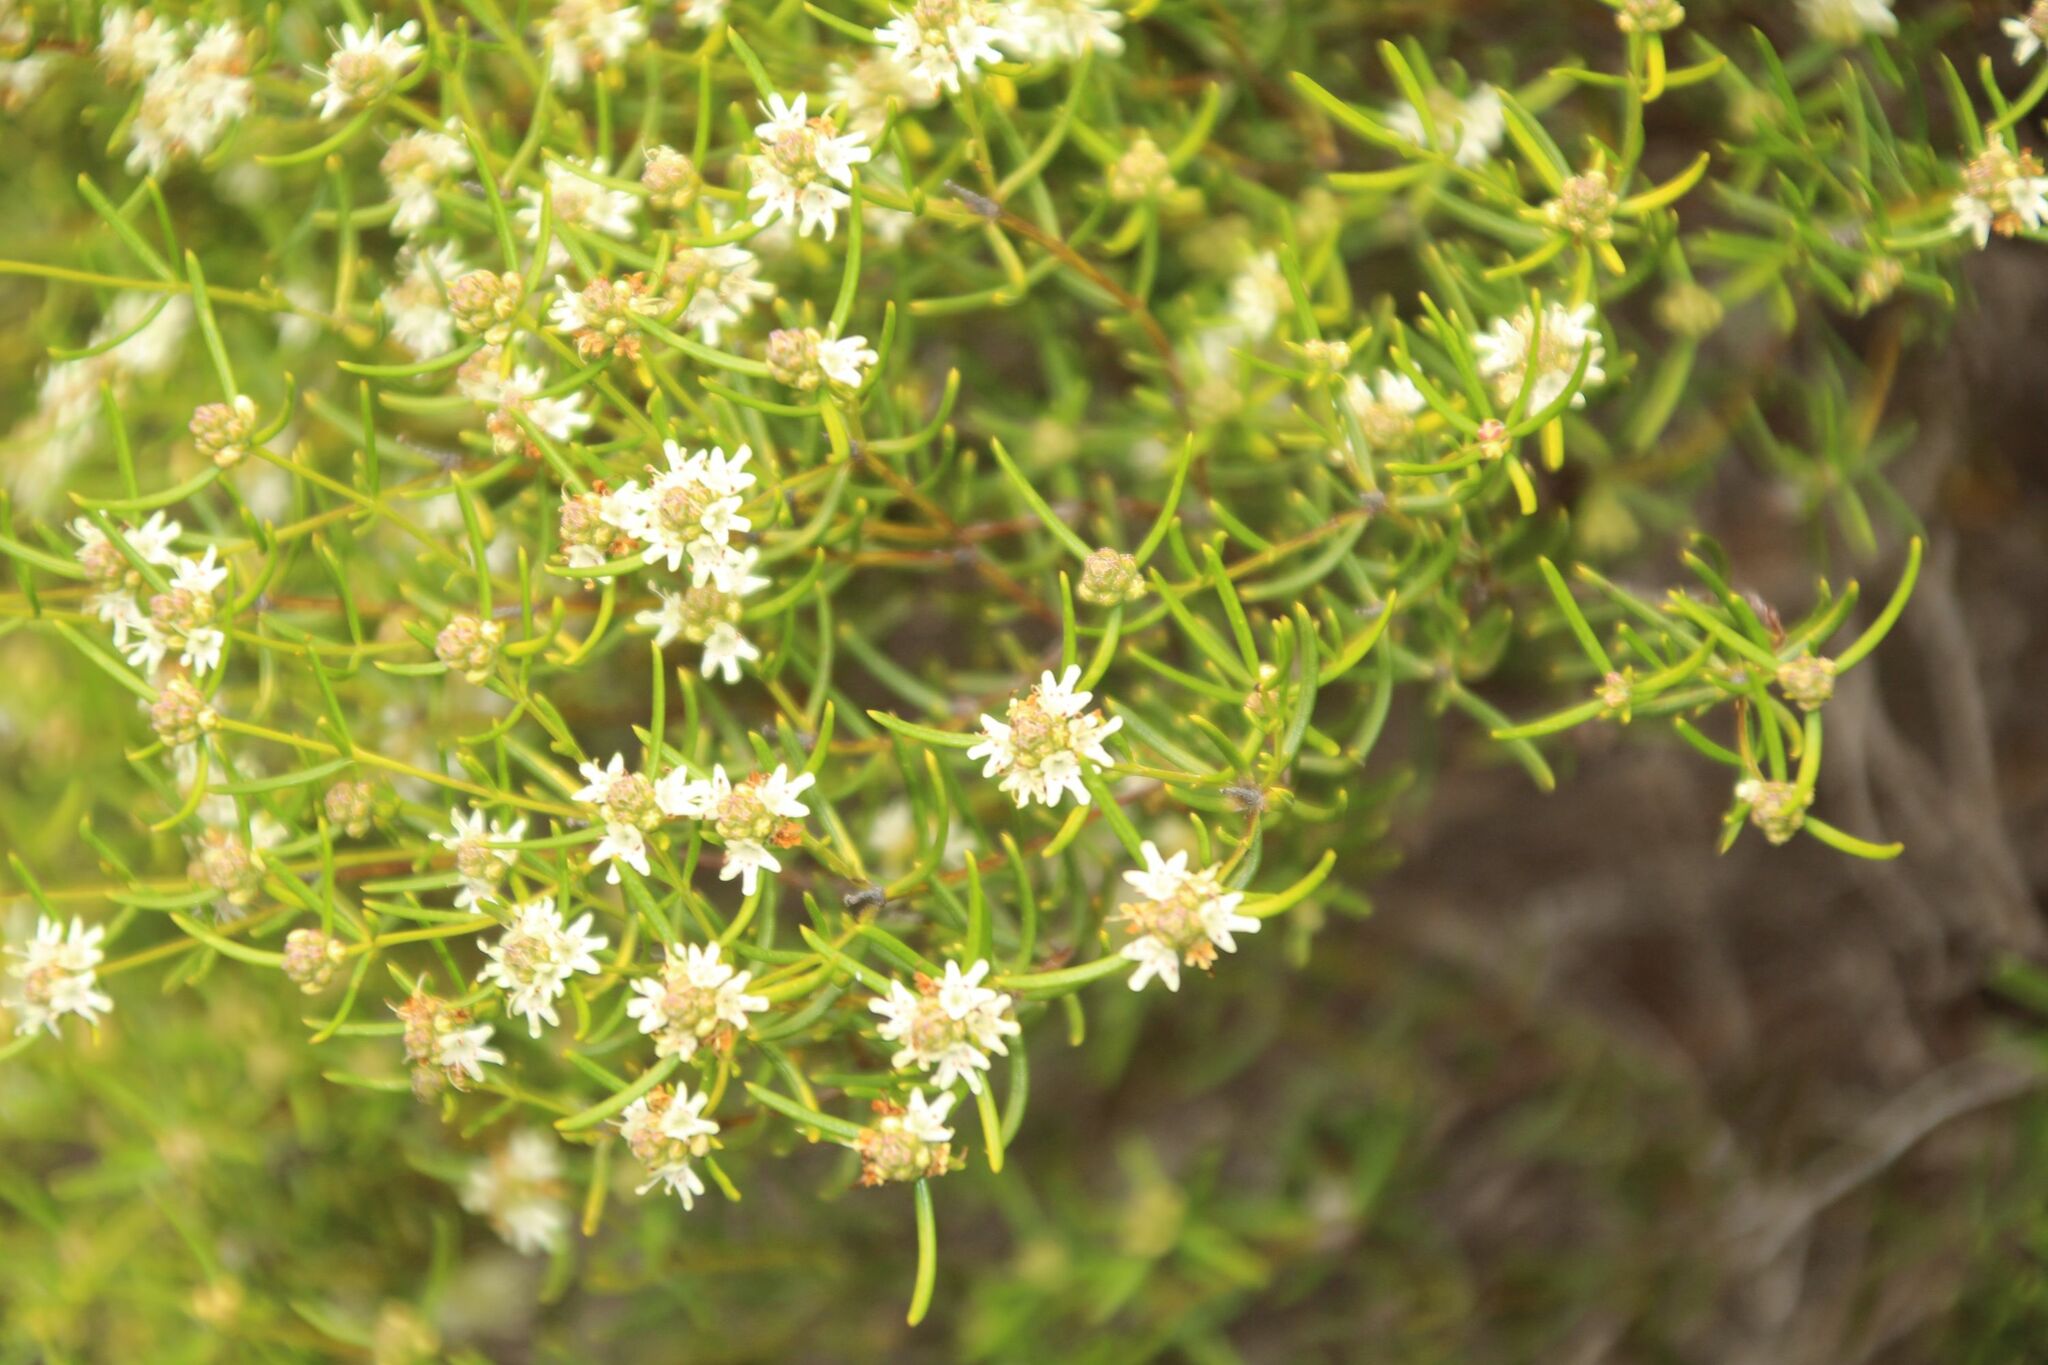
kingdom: Plantae
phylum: Tracheophyta
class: Magnoliopsida
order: Lamiales
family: Lamiaceae
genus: Westringia
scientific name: Westringia cephalantha
